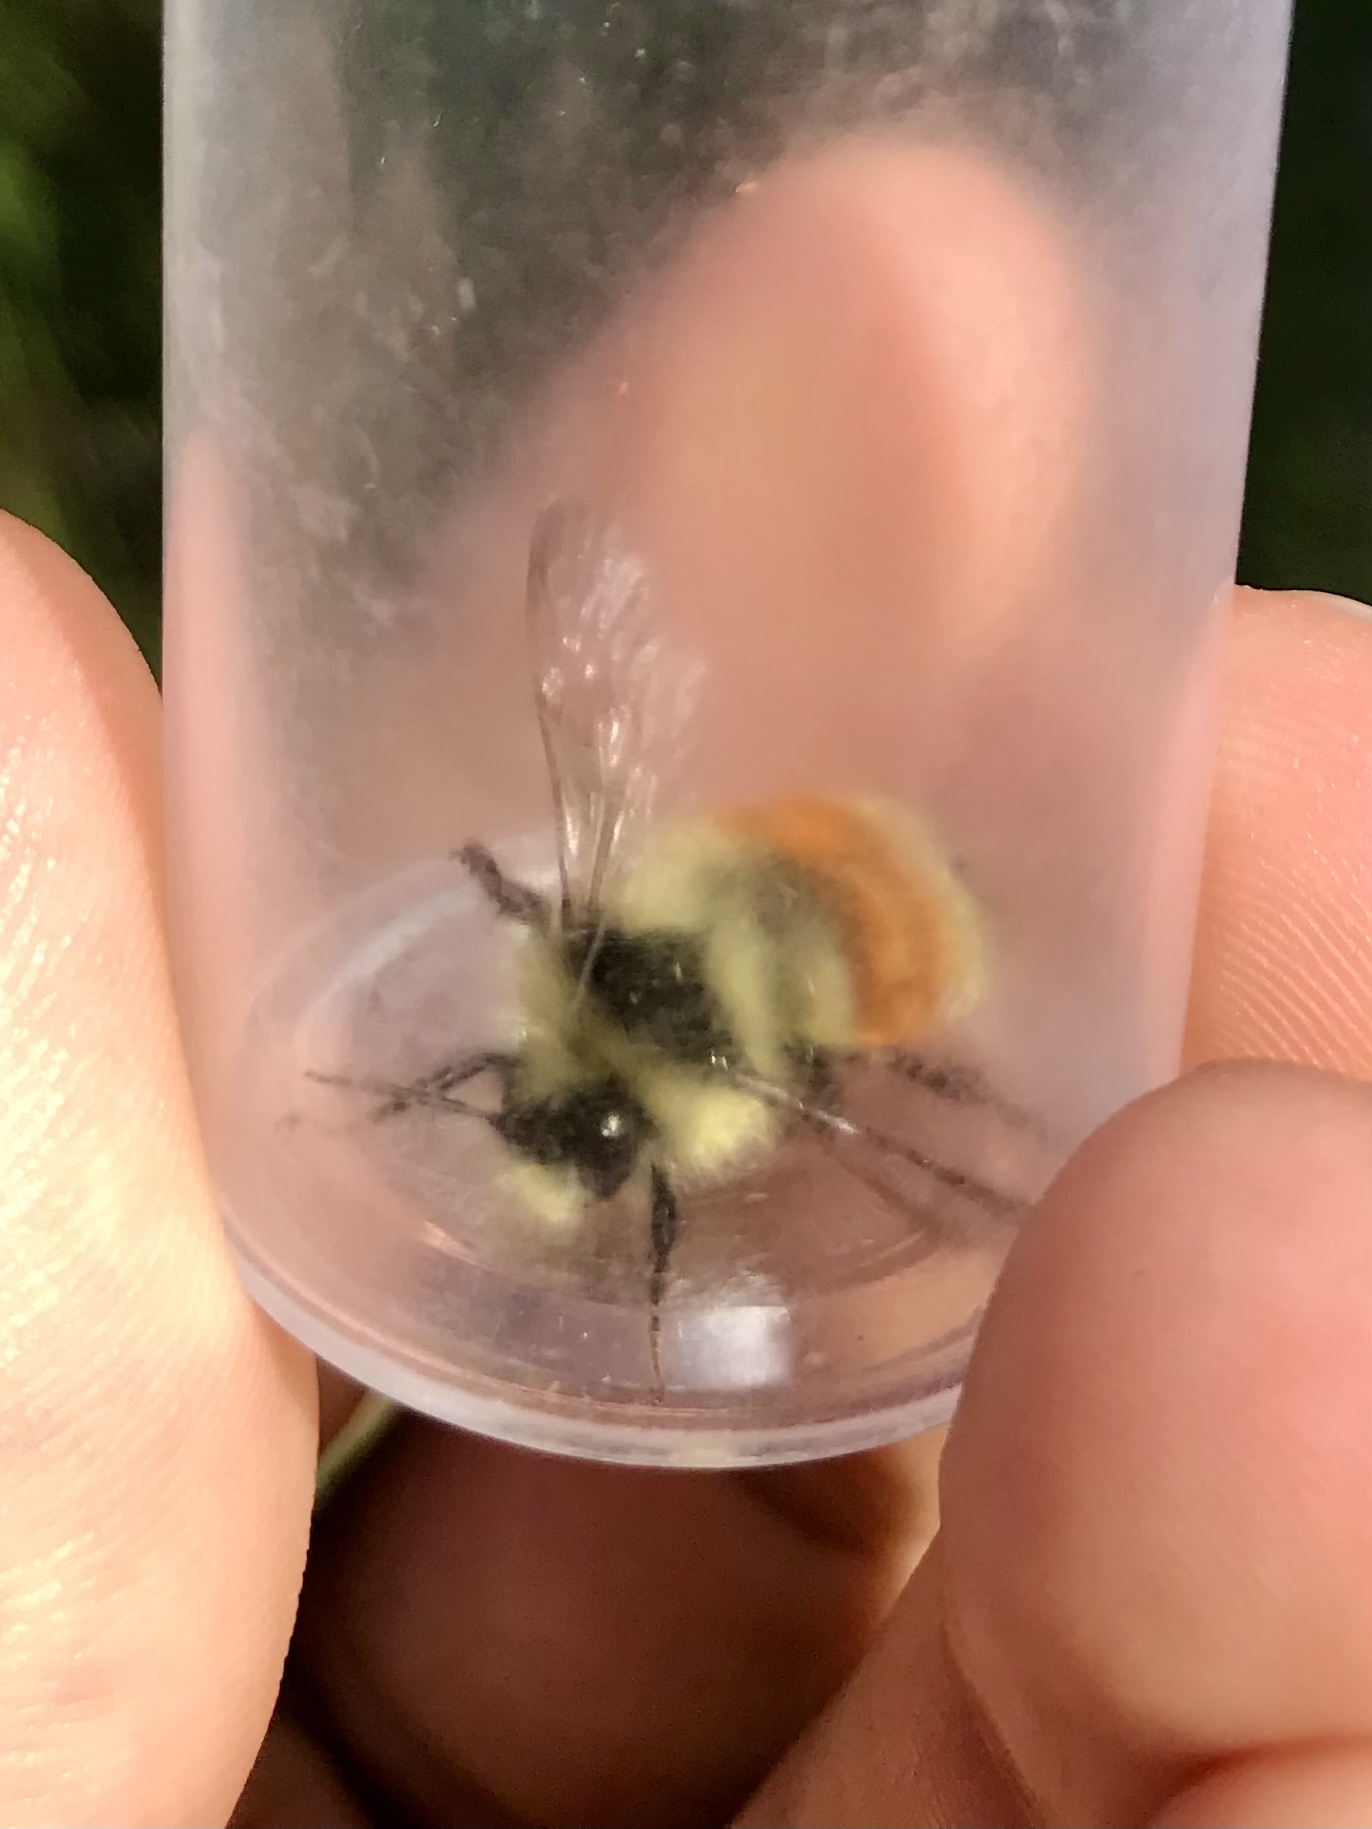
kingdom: Animalia
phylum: Arthropoda
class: Insecta
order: Hymenoptera
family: Apidae
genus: Bombus
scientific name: Bombus ternarius
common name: Tri-colored bumble bee
